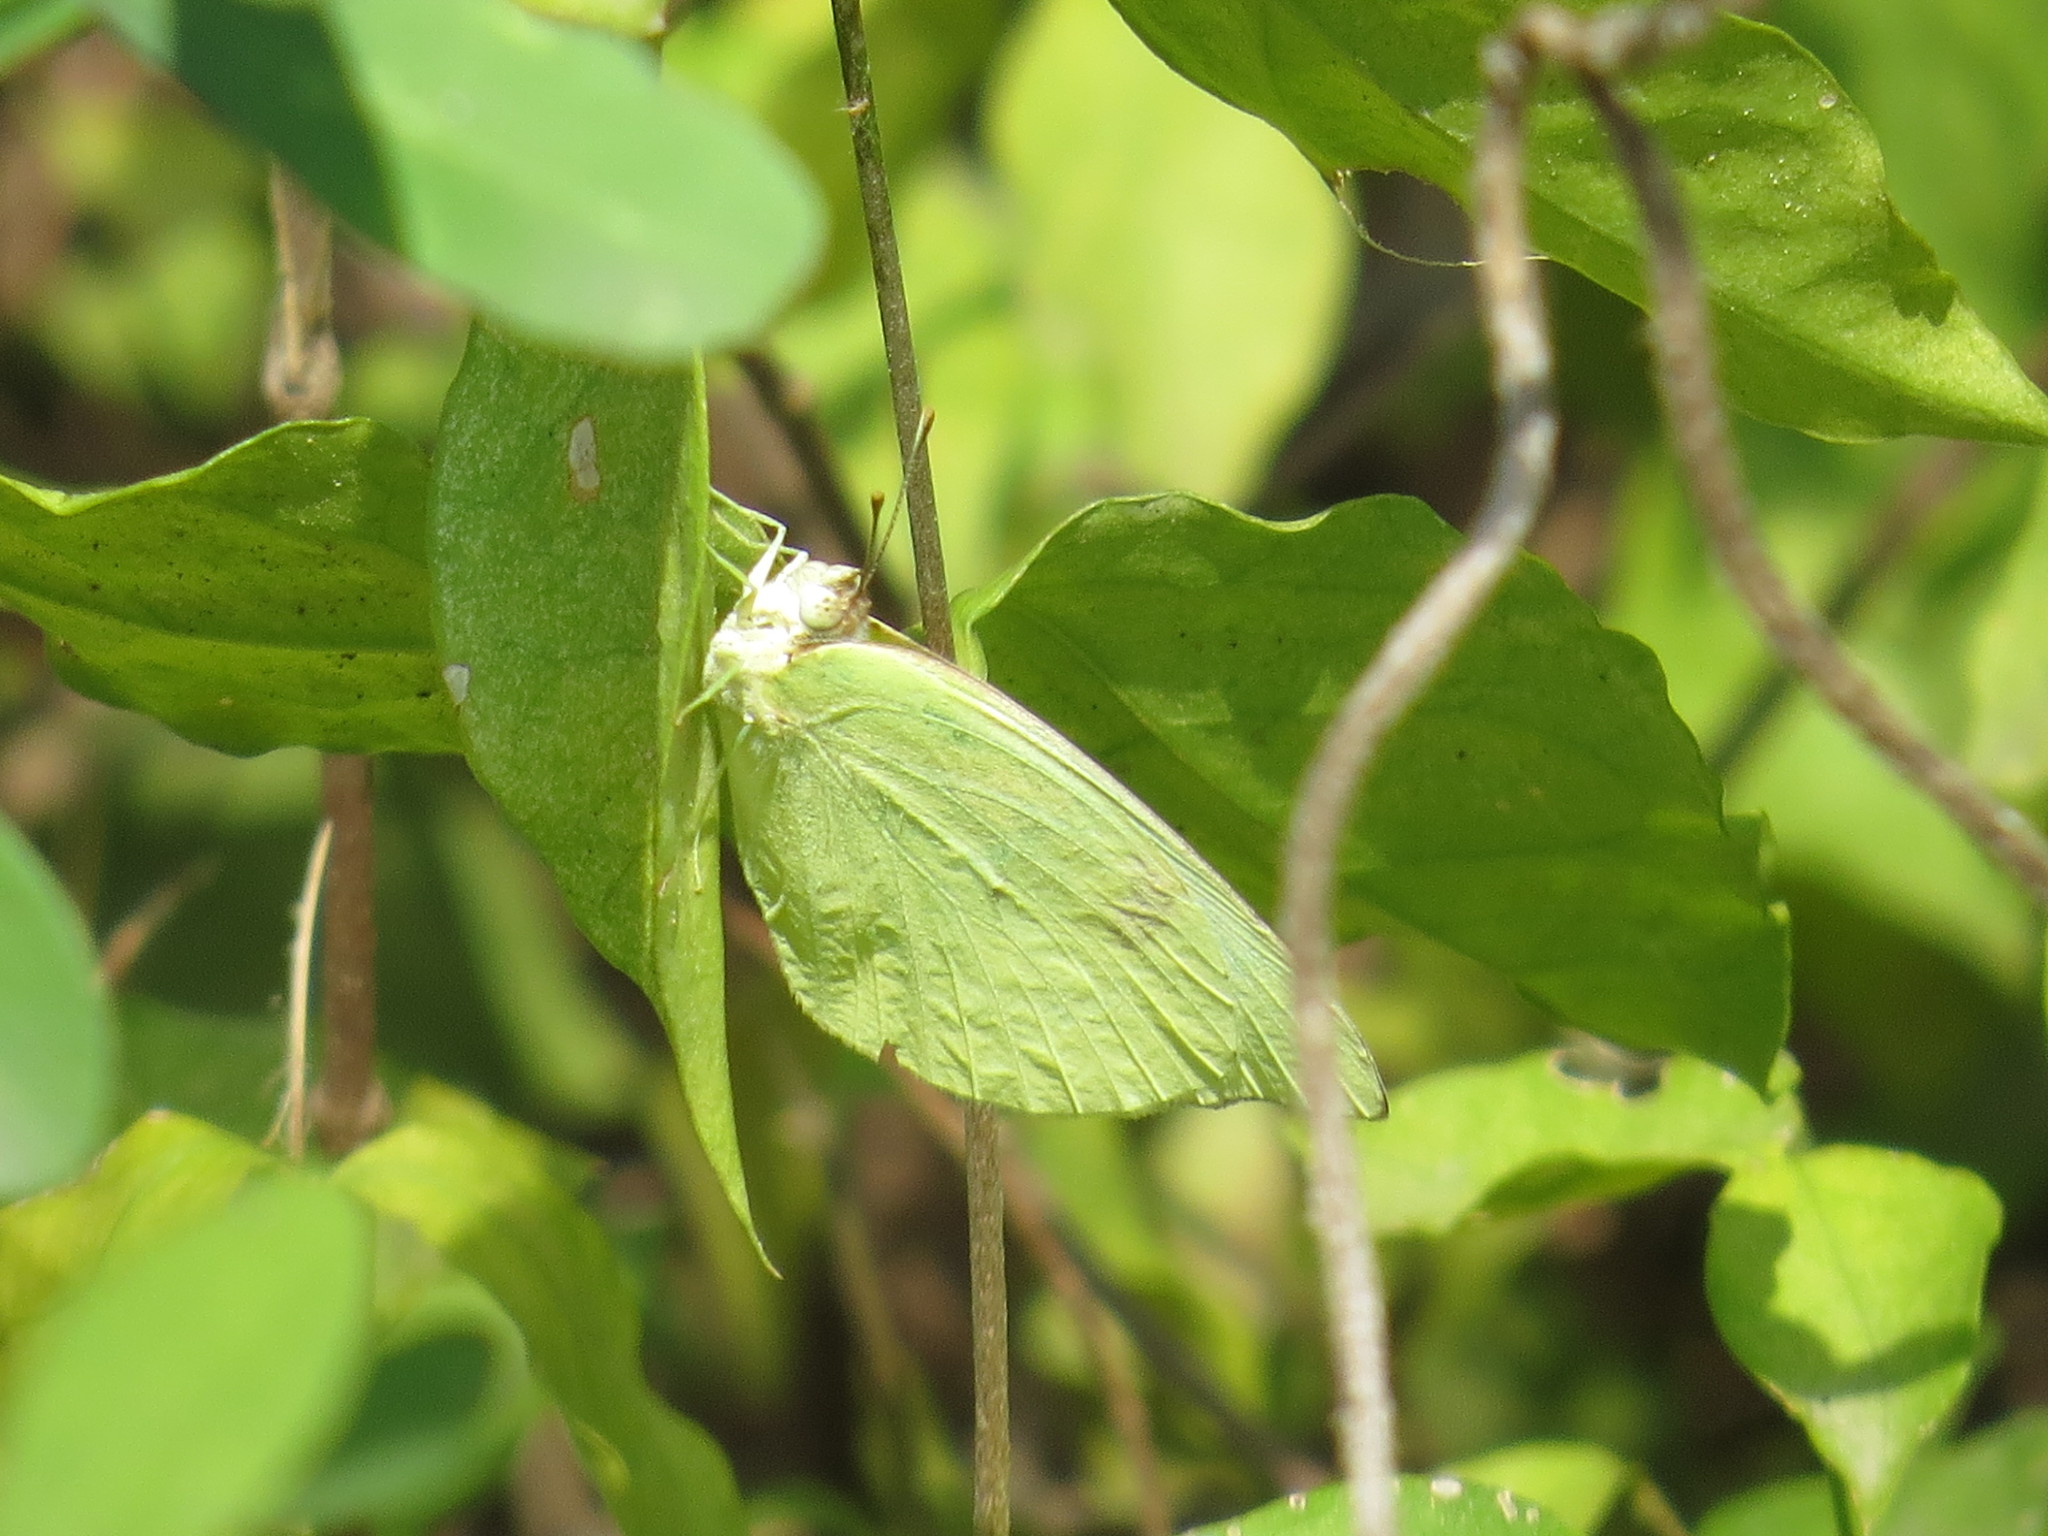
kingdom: Animalia
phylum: Arthropoda
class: Insecta
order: Lepidoptera
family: Pieridae
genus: Kricogonia
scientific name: Kricogonia lyside
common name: Guayacan sulphur,
